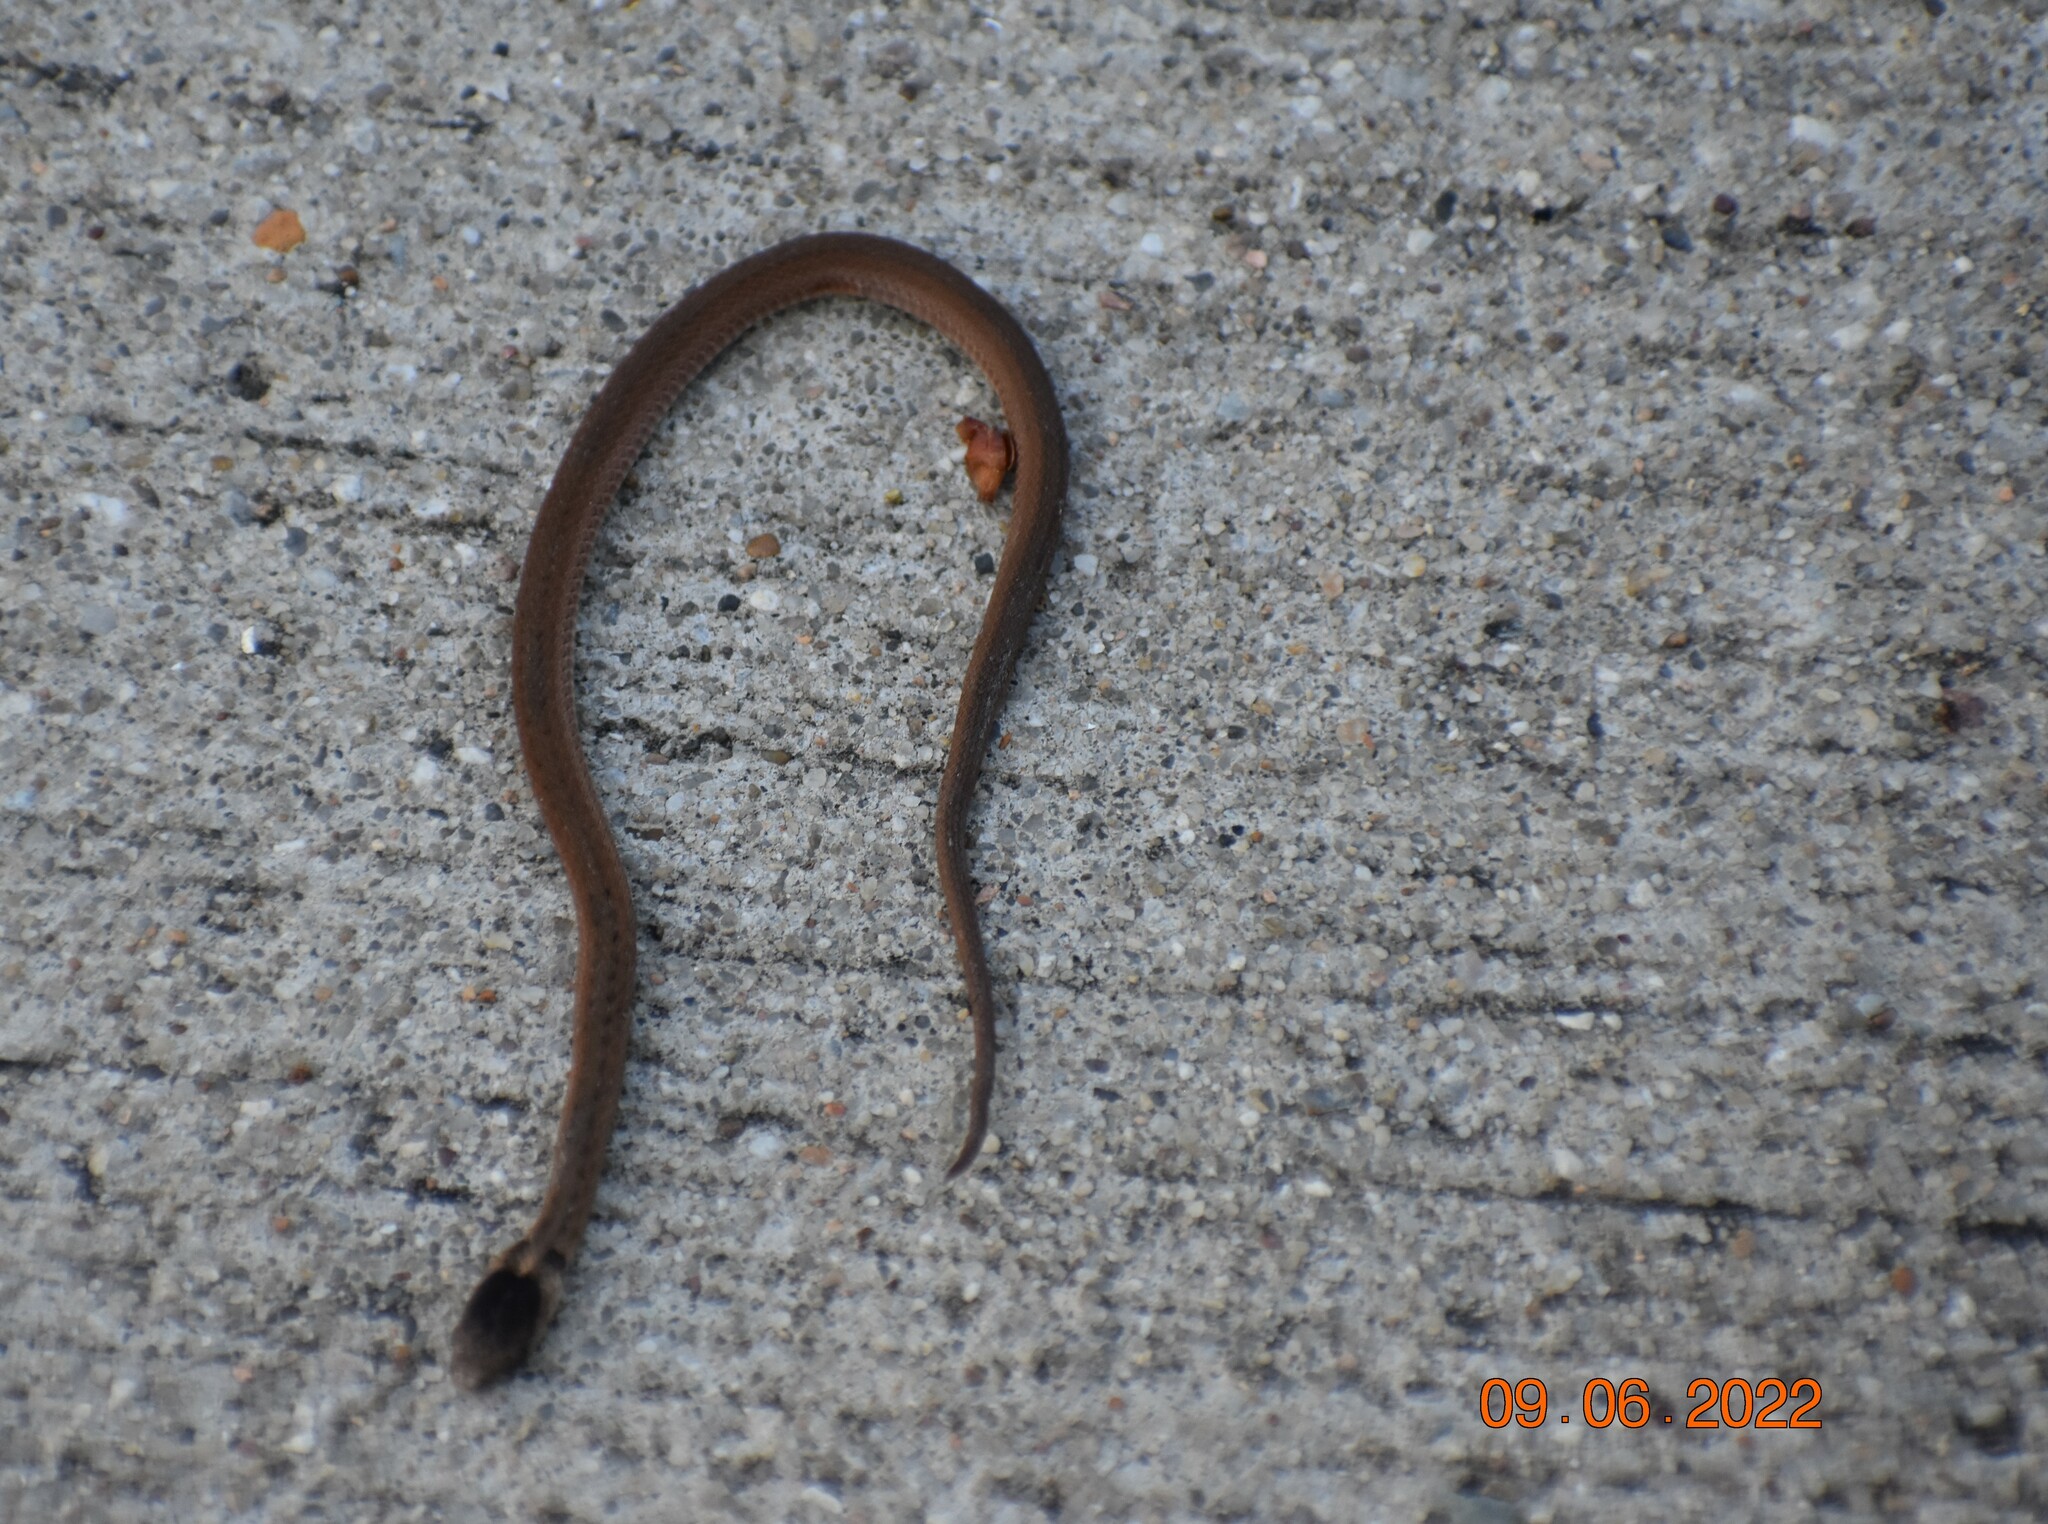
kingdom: Animalia
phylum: Chordata
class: Squamata
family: Colubridae
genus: Storeria
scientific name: Storeria dekayi
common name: (dekay’s) brown snake
